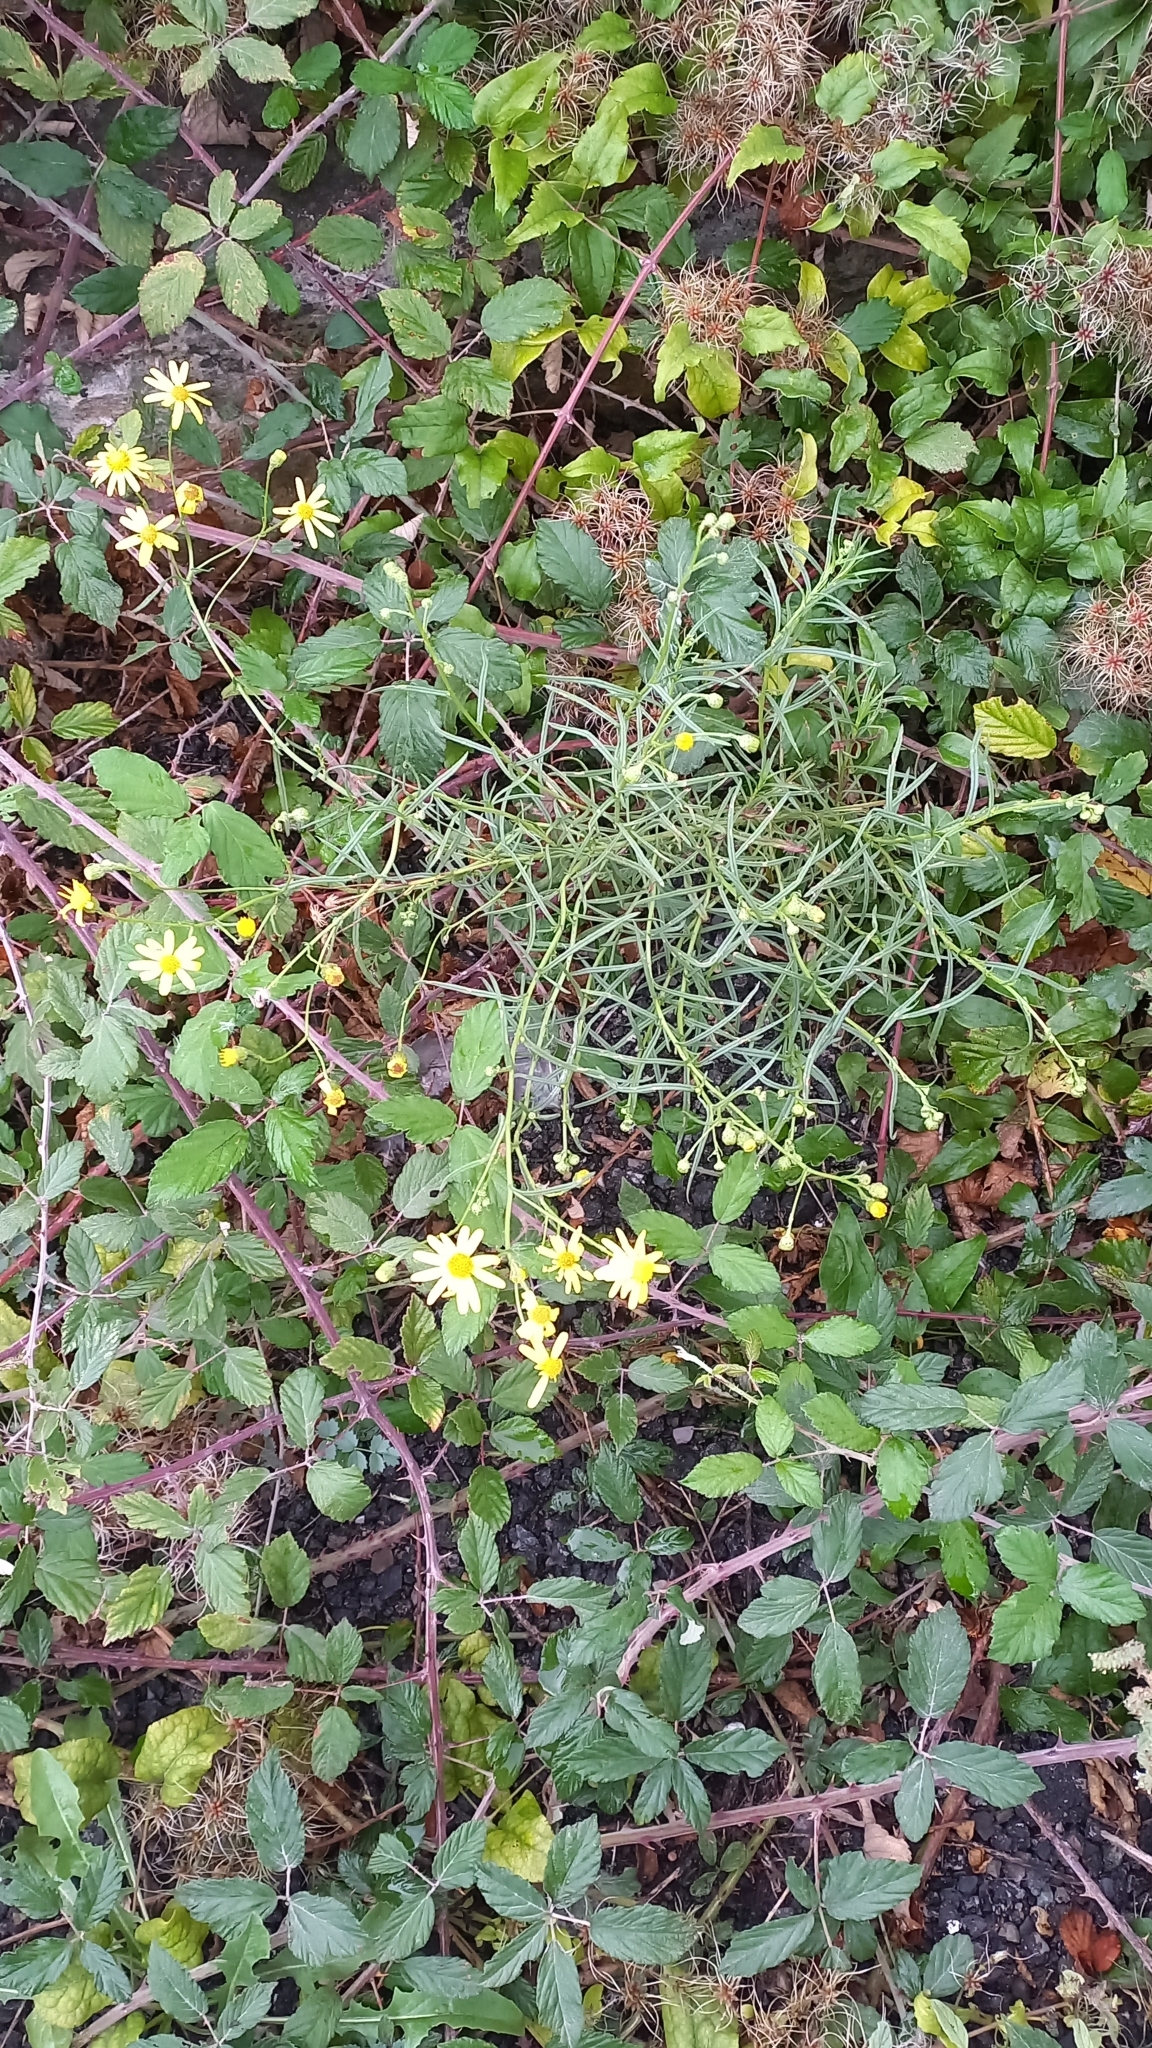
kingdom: Plantae
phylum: Tracheophyta
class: Magnoliopsida
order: Asterales
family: Asteraceae
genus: Senecio
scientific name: Senecio inaequidens
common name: Narrow-leaved ragwort
